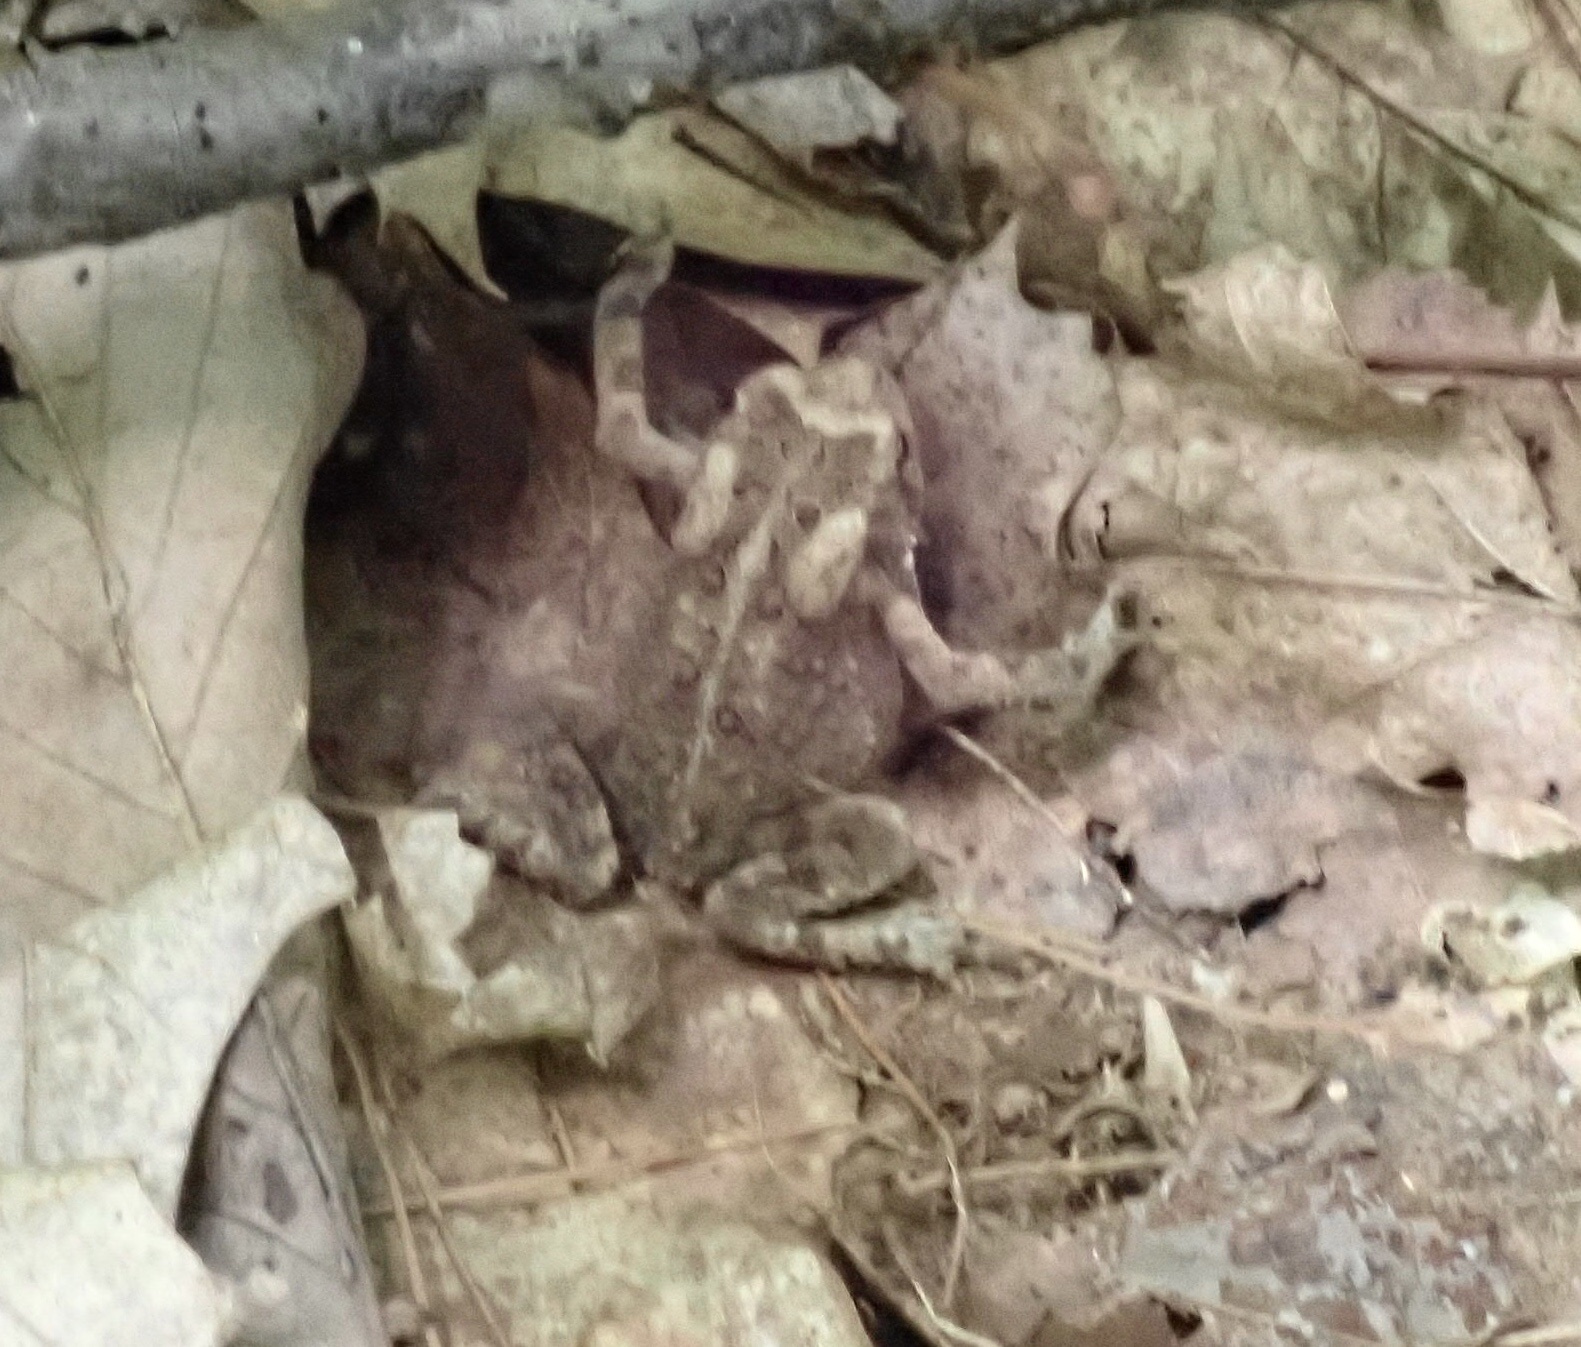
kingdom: Animalia
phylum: Chordata
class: Amphibia
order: Anura
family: Bufonidae
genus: Anaxyrus
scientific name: Anaxyrus americanus
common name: American toad
